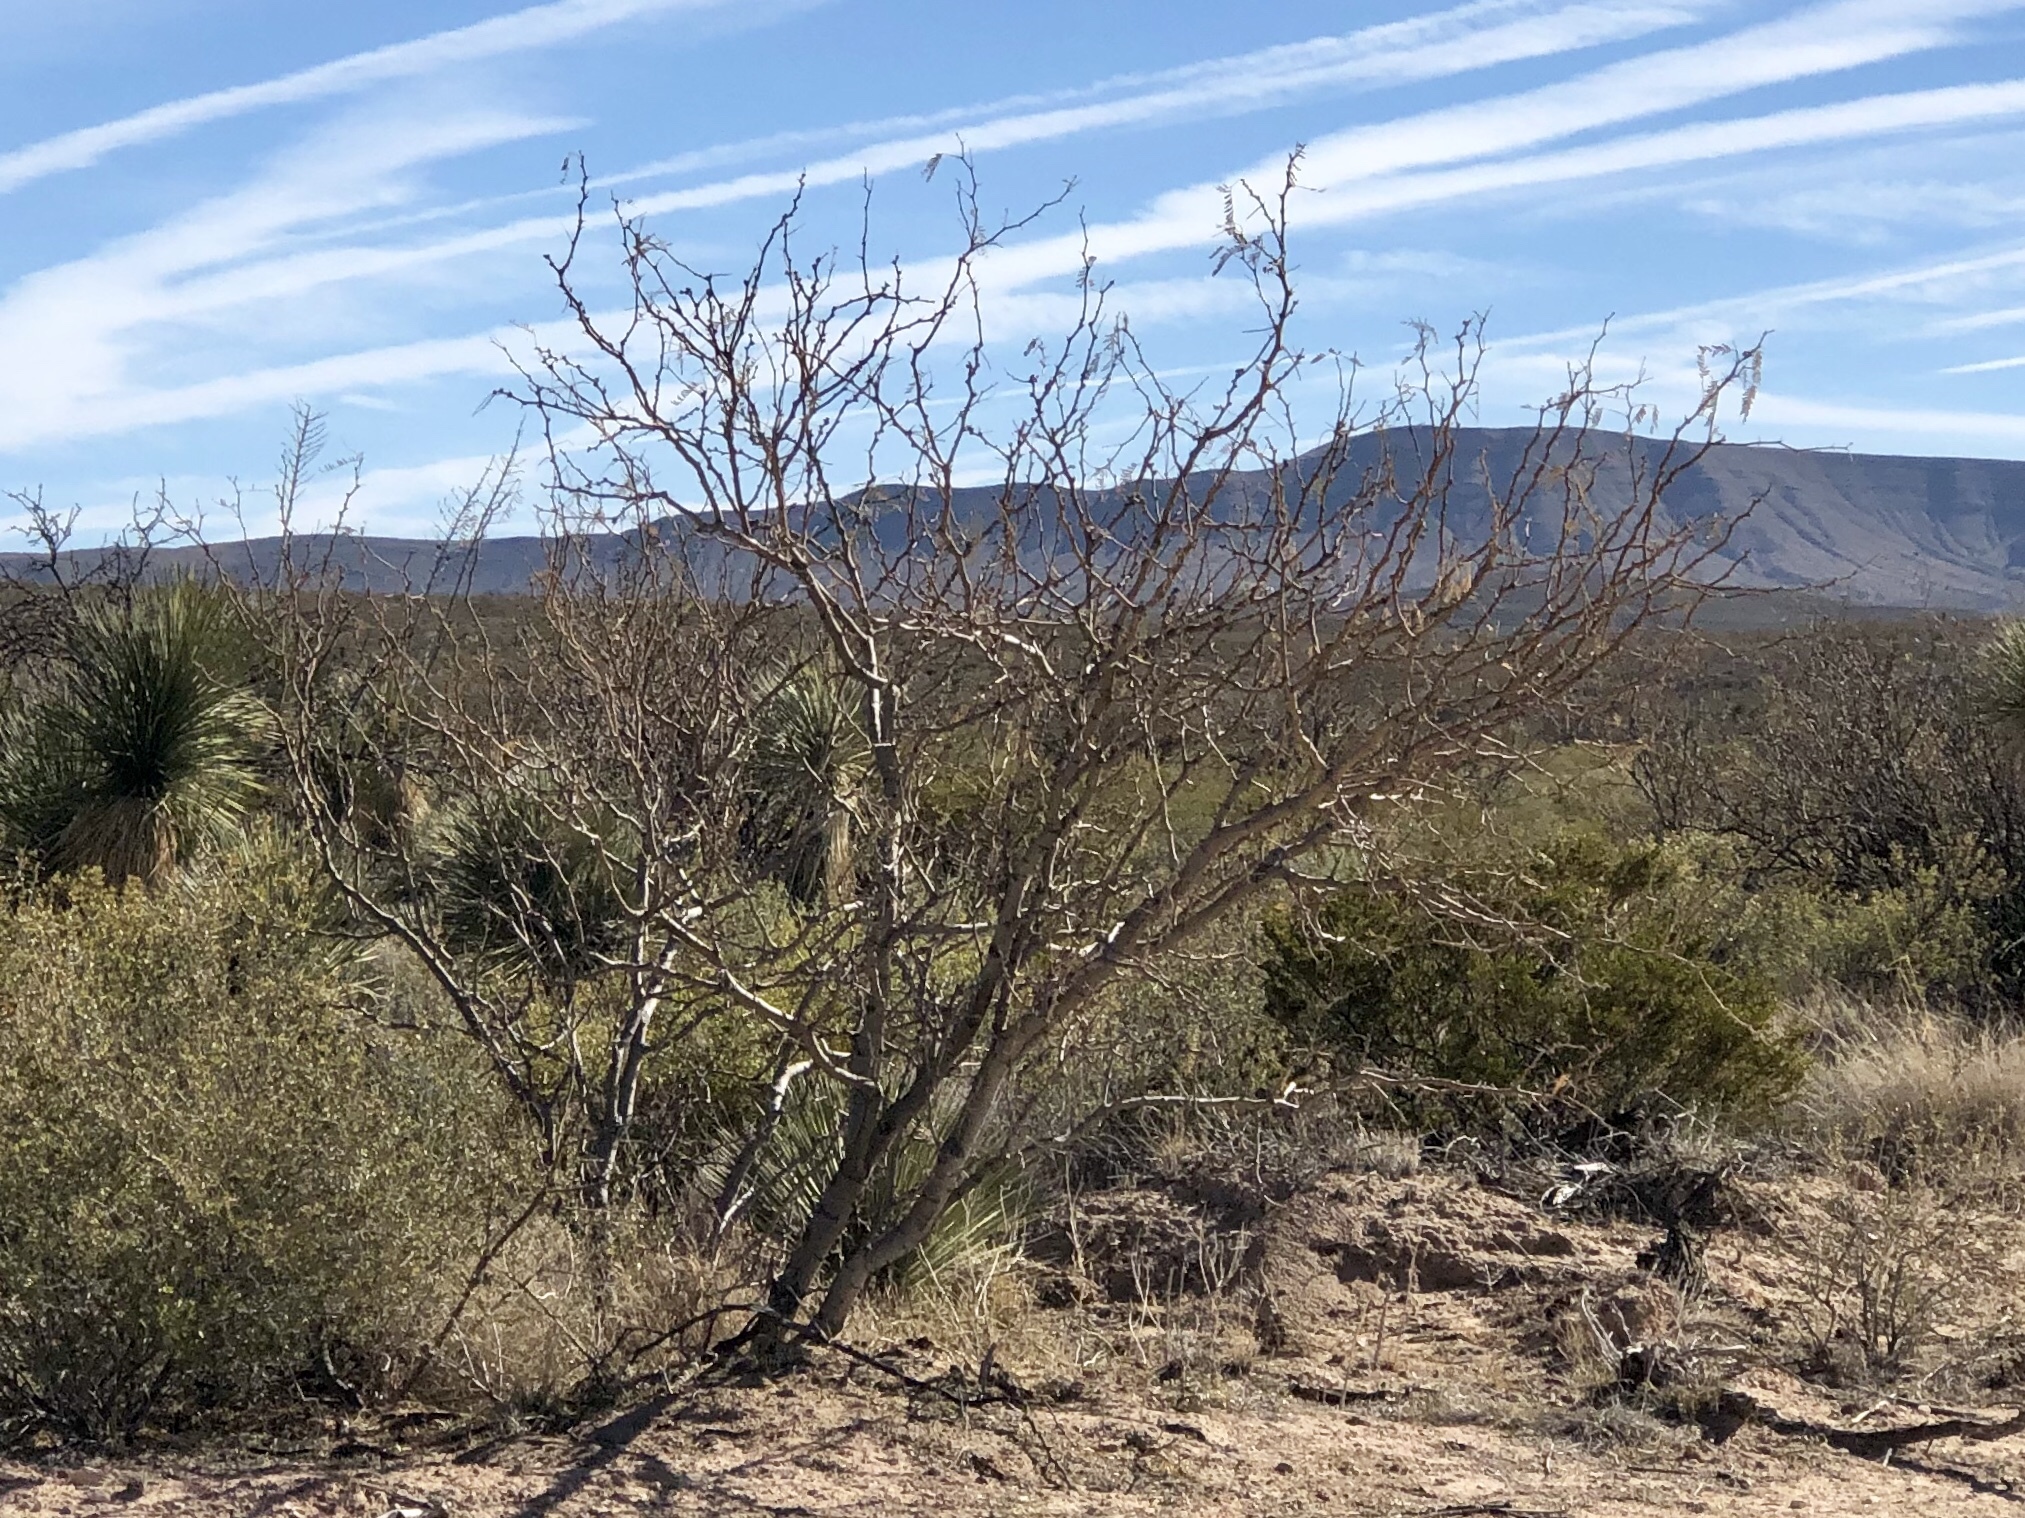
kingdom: Plantae
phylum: Tracheophyta
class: Magnoliopsida
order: Fabales
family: Fabaceae
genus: Prosopis
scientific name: Prosopis glandulosa
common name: Honey mesquite
